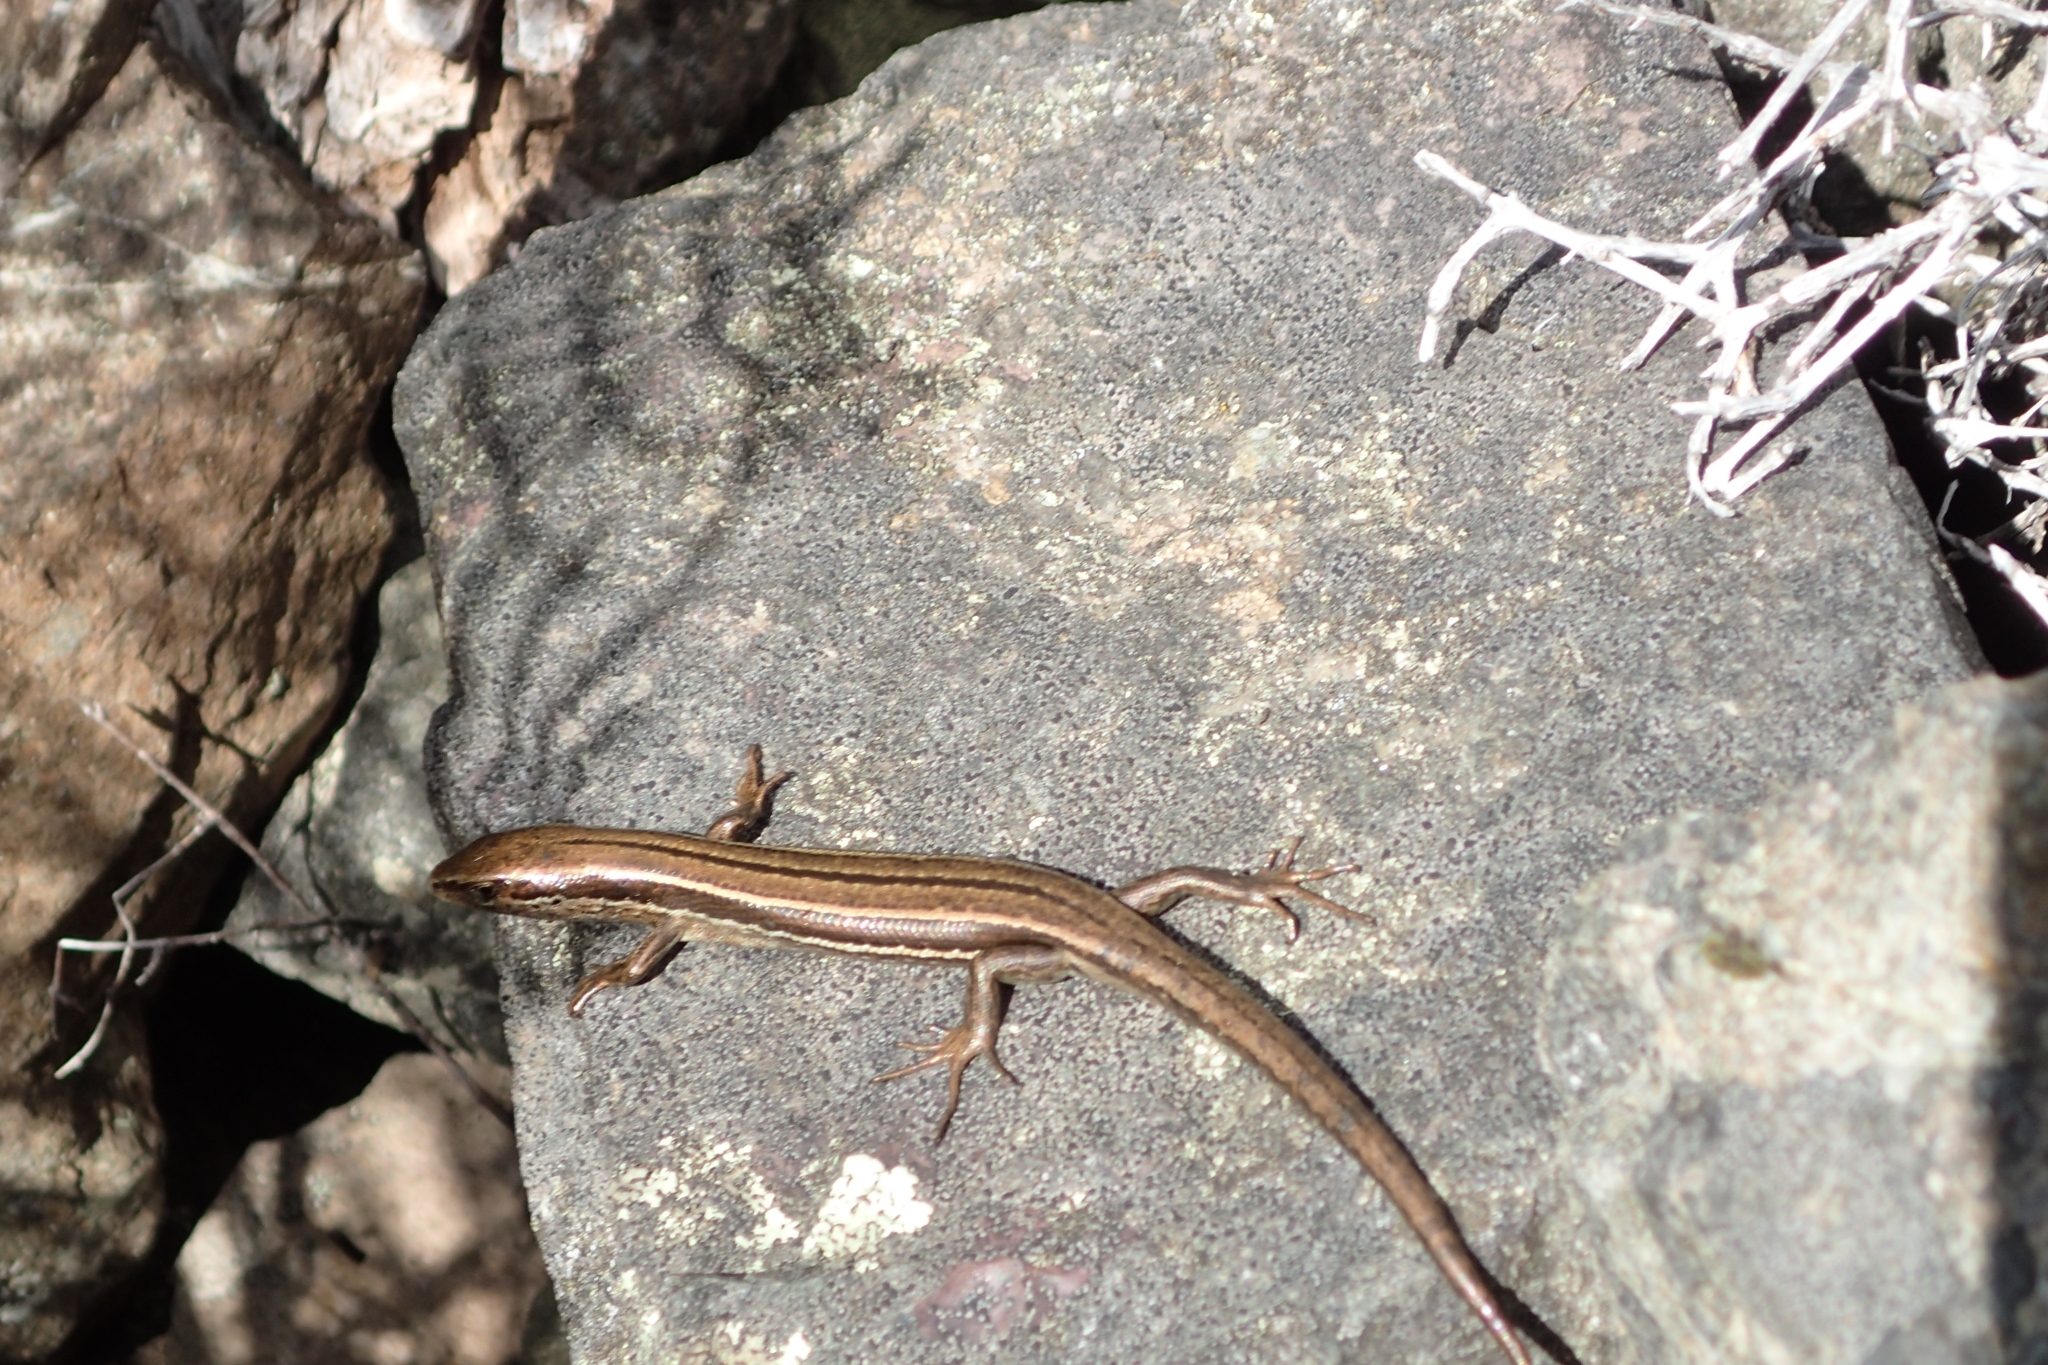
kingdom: Animalia
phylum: Chordata
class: Squamata
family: Scincidae
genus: Oligosoma
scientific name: Oligosoma repens
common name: Eyres skink
